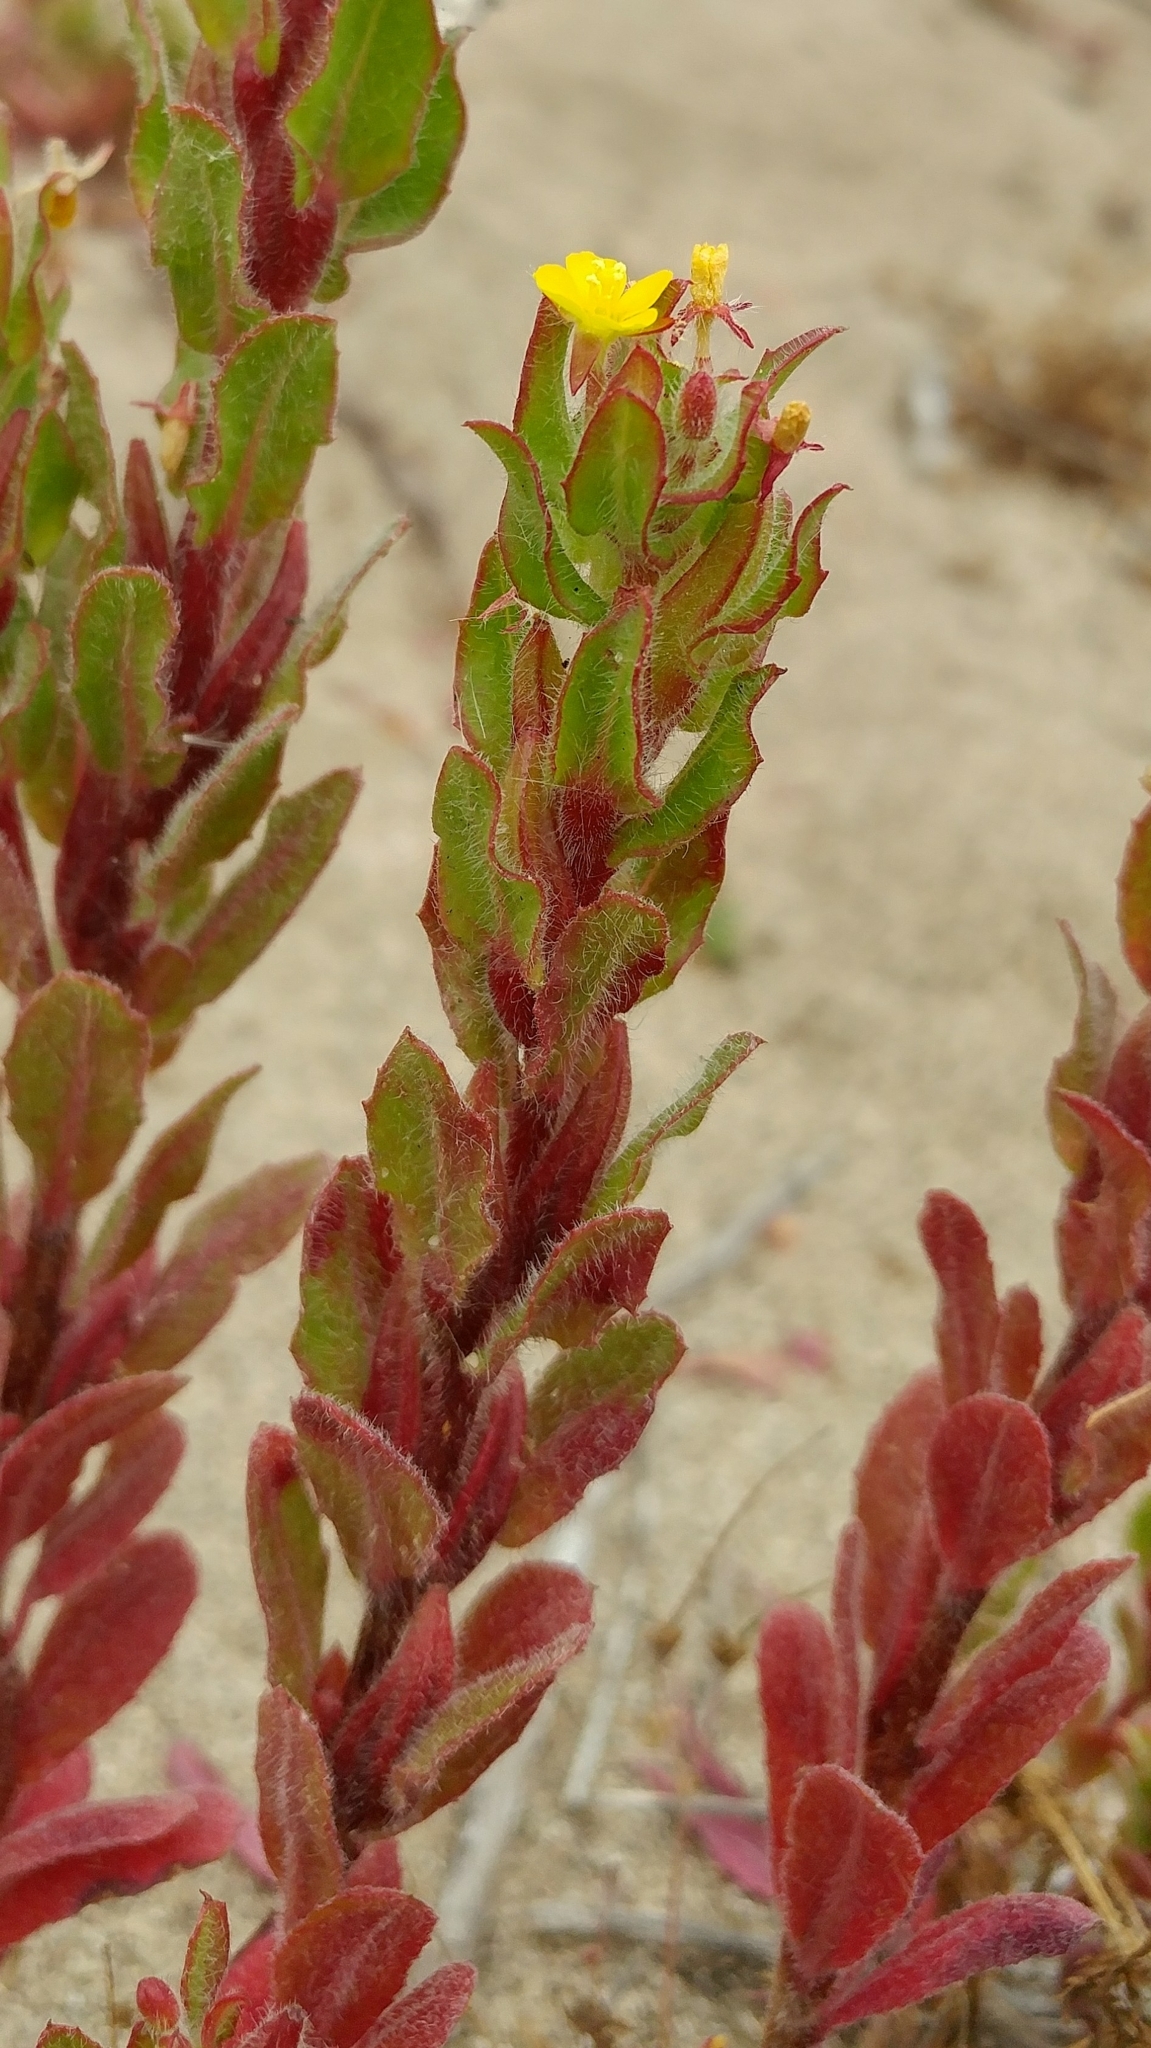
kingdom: Plantae
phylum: Tracheophyta
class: Magnoliopsida
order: Myrtales
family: Onagraceae
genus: Camissoniopsis
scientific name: Camissoniopsis guadalupensis
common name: Guadalupe suncup
